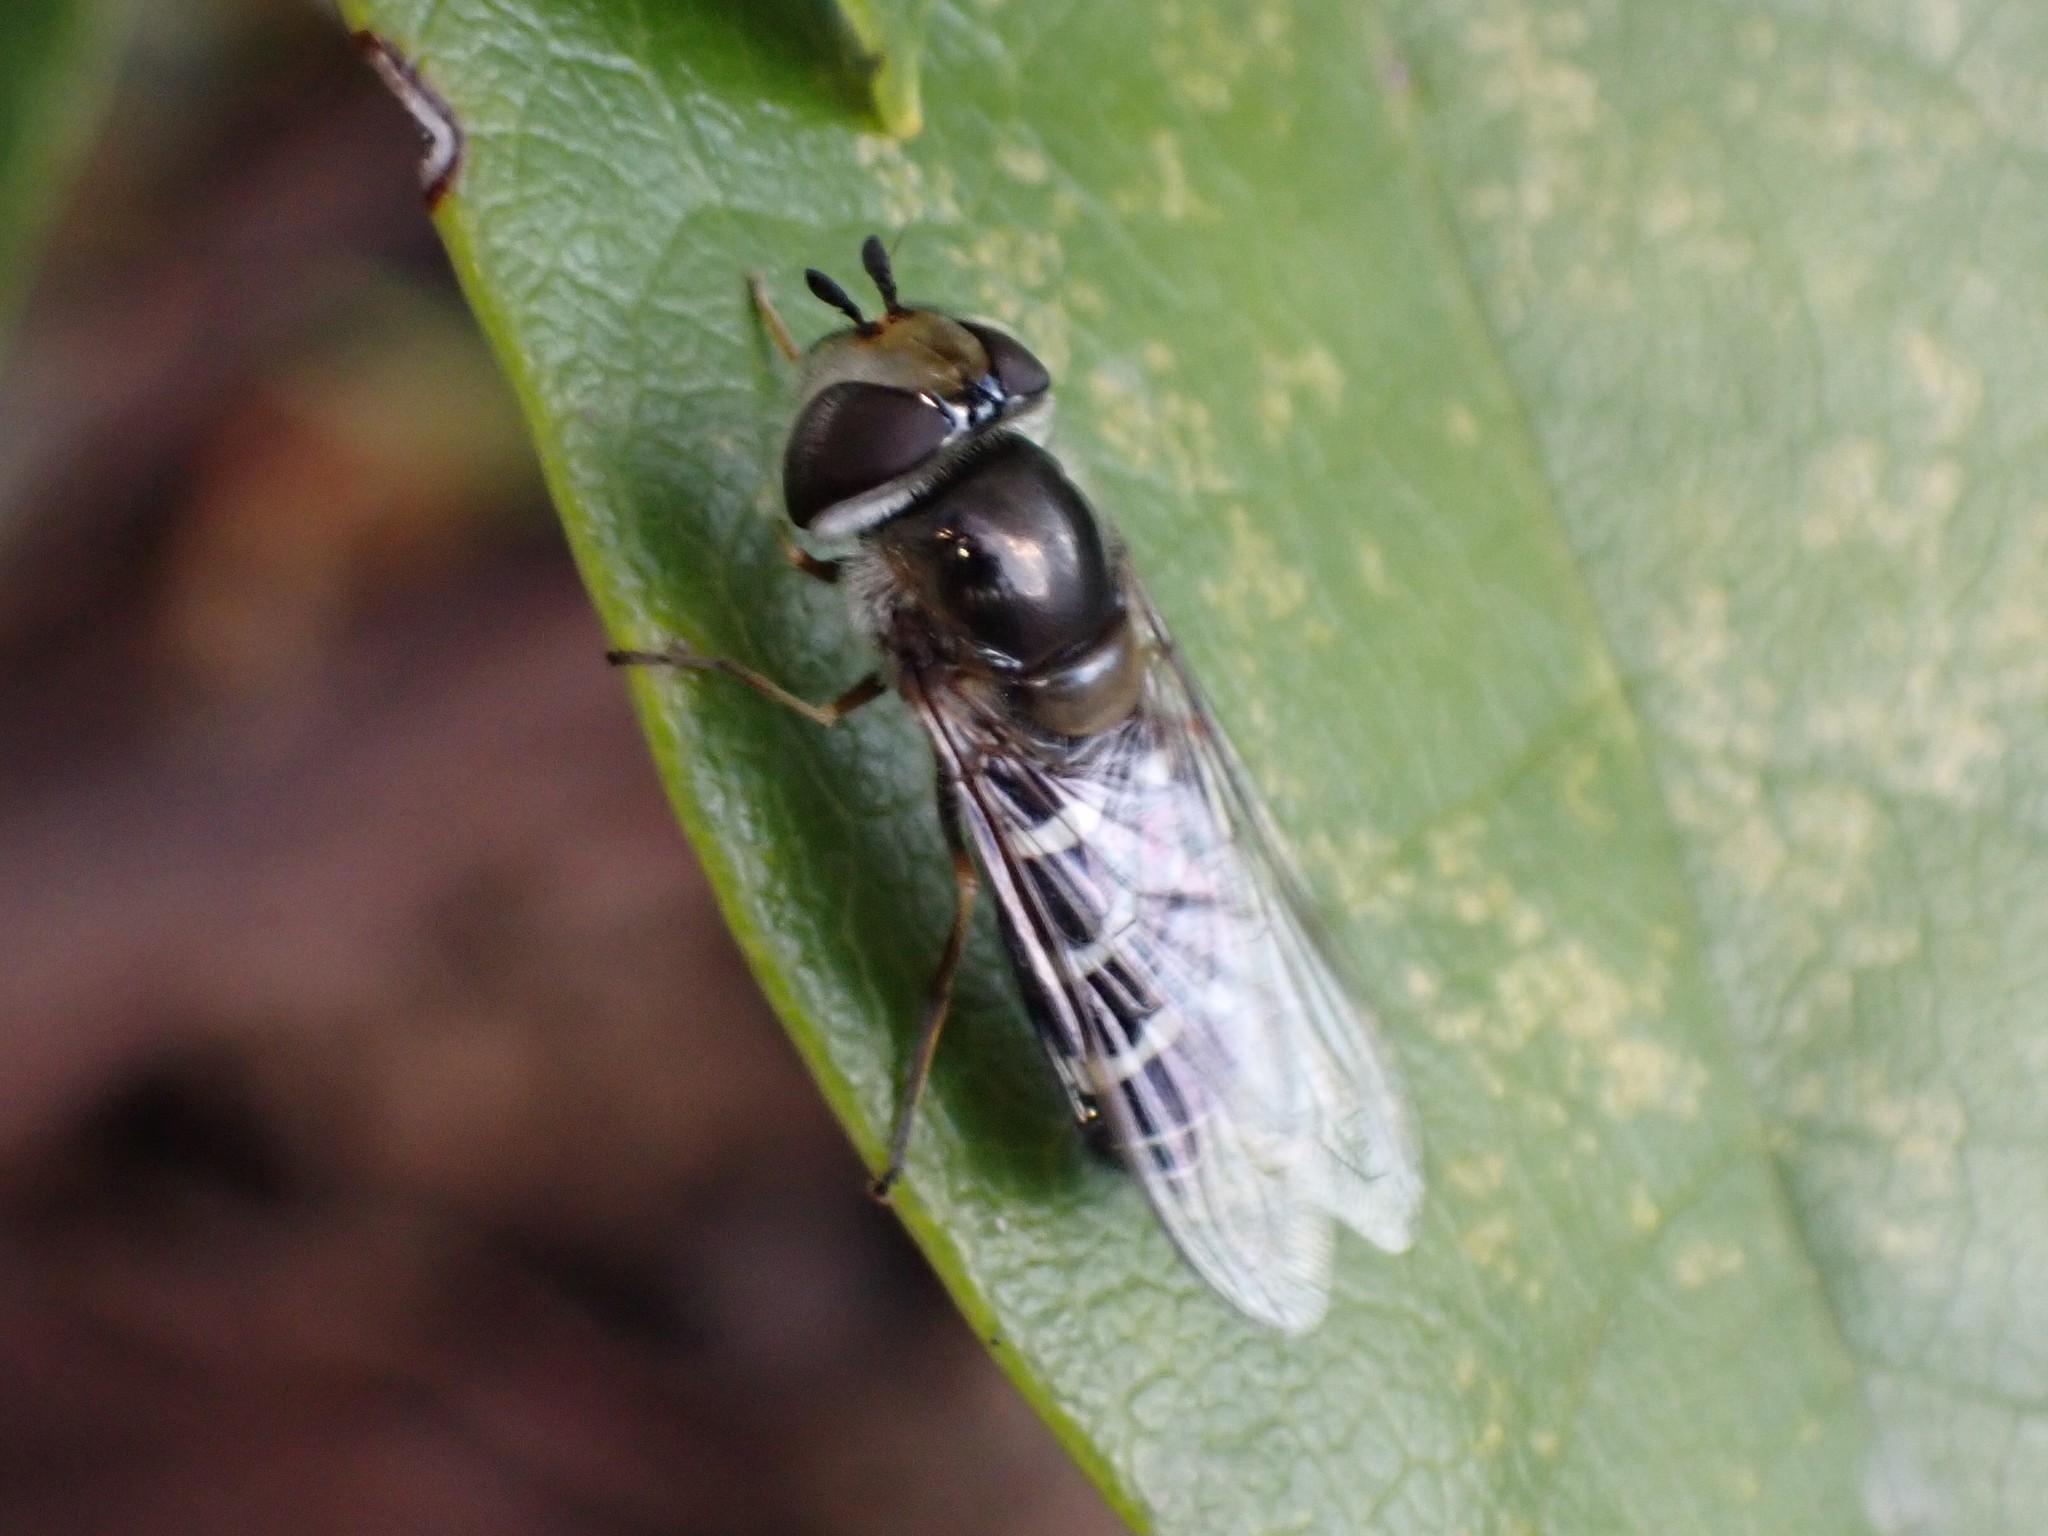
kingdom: Animalia
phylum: Arthropoda
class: Insecta
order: Diptera
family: Syrphidae
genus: Scaeva
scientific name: Scaeva affinis
